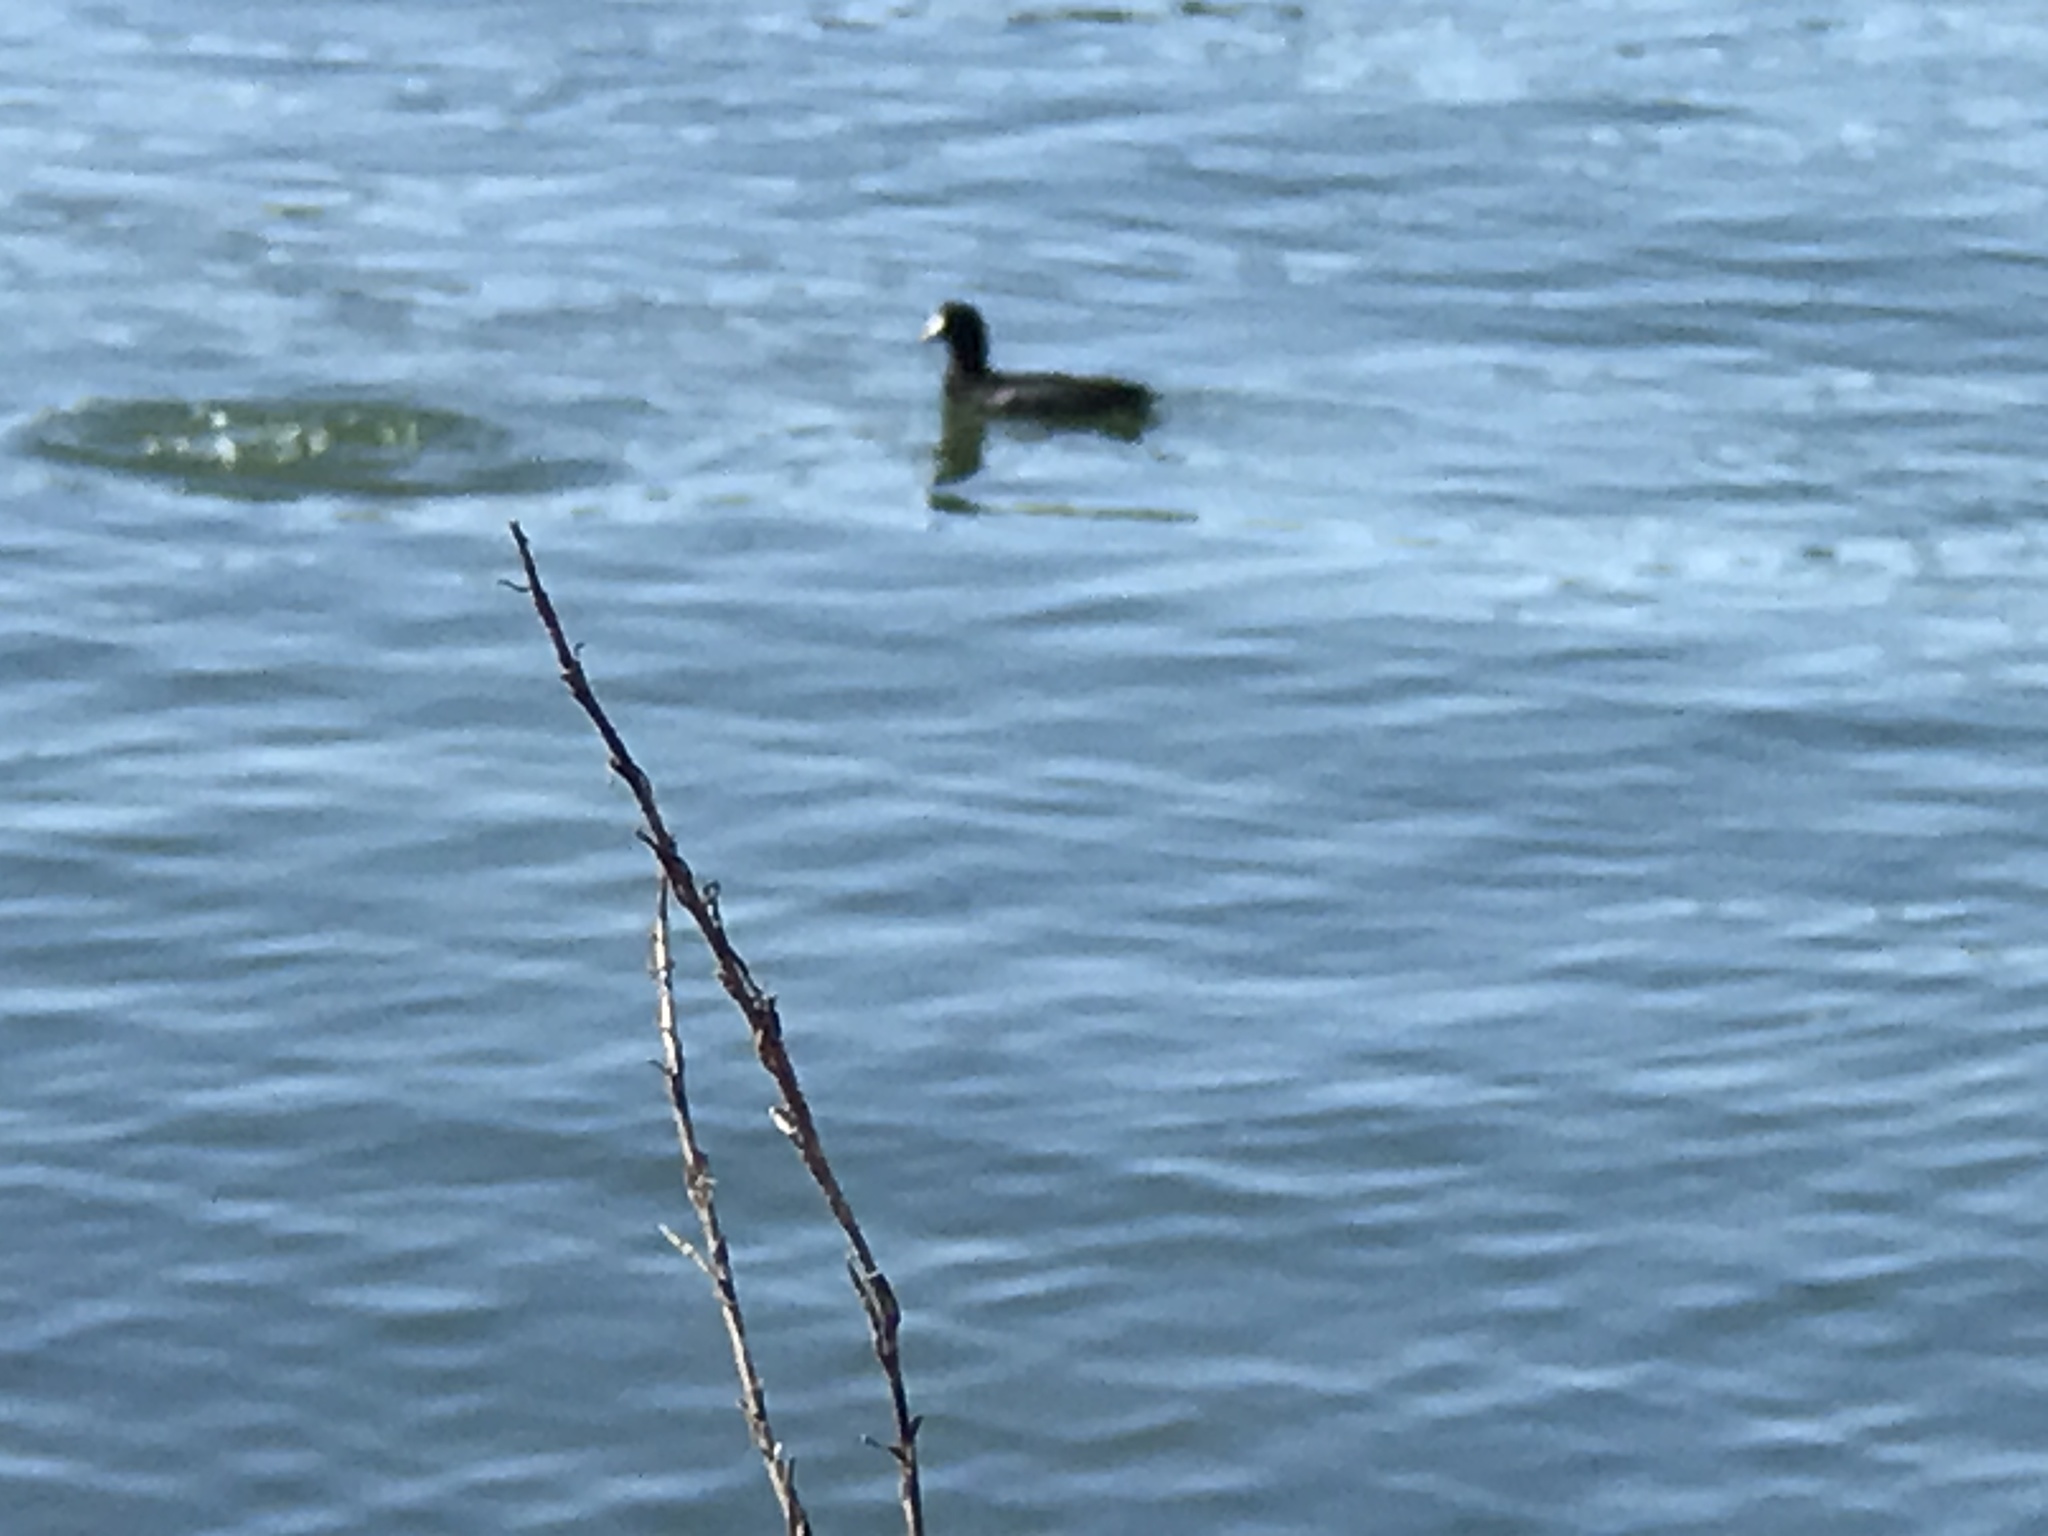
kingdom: Animalia
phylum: Chordata
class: Aves
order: Gruiformes
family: Rallidae
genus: Fulica
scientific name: Fulica americana
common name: American coot
